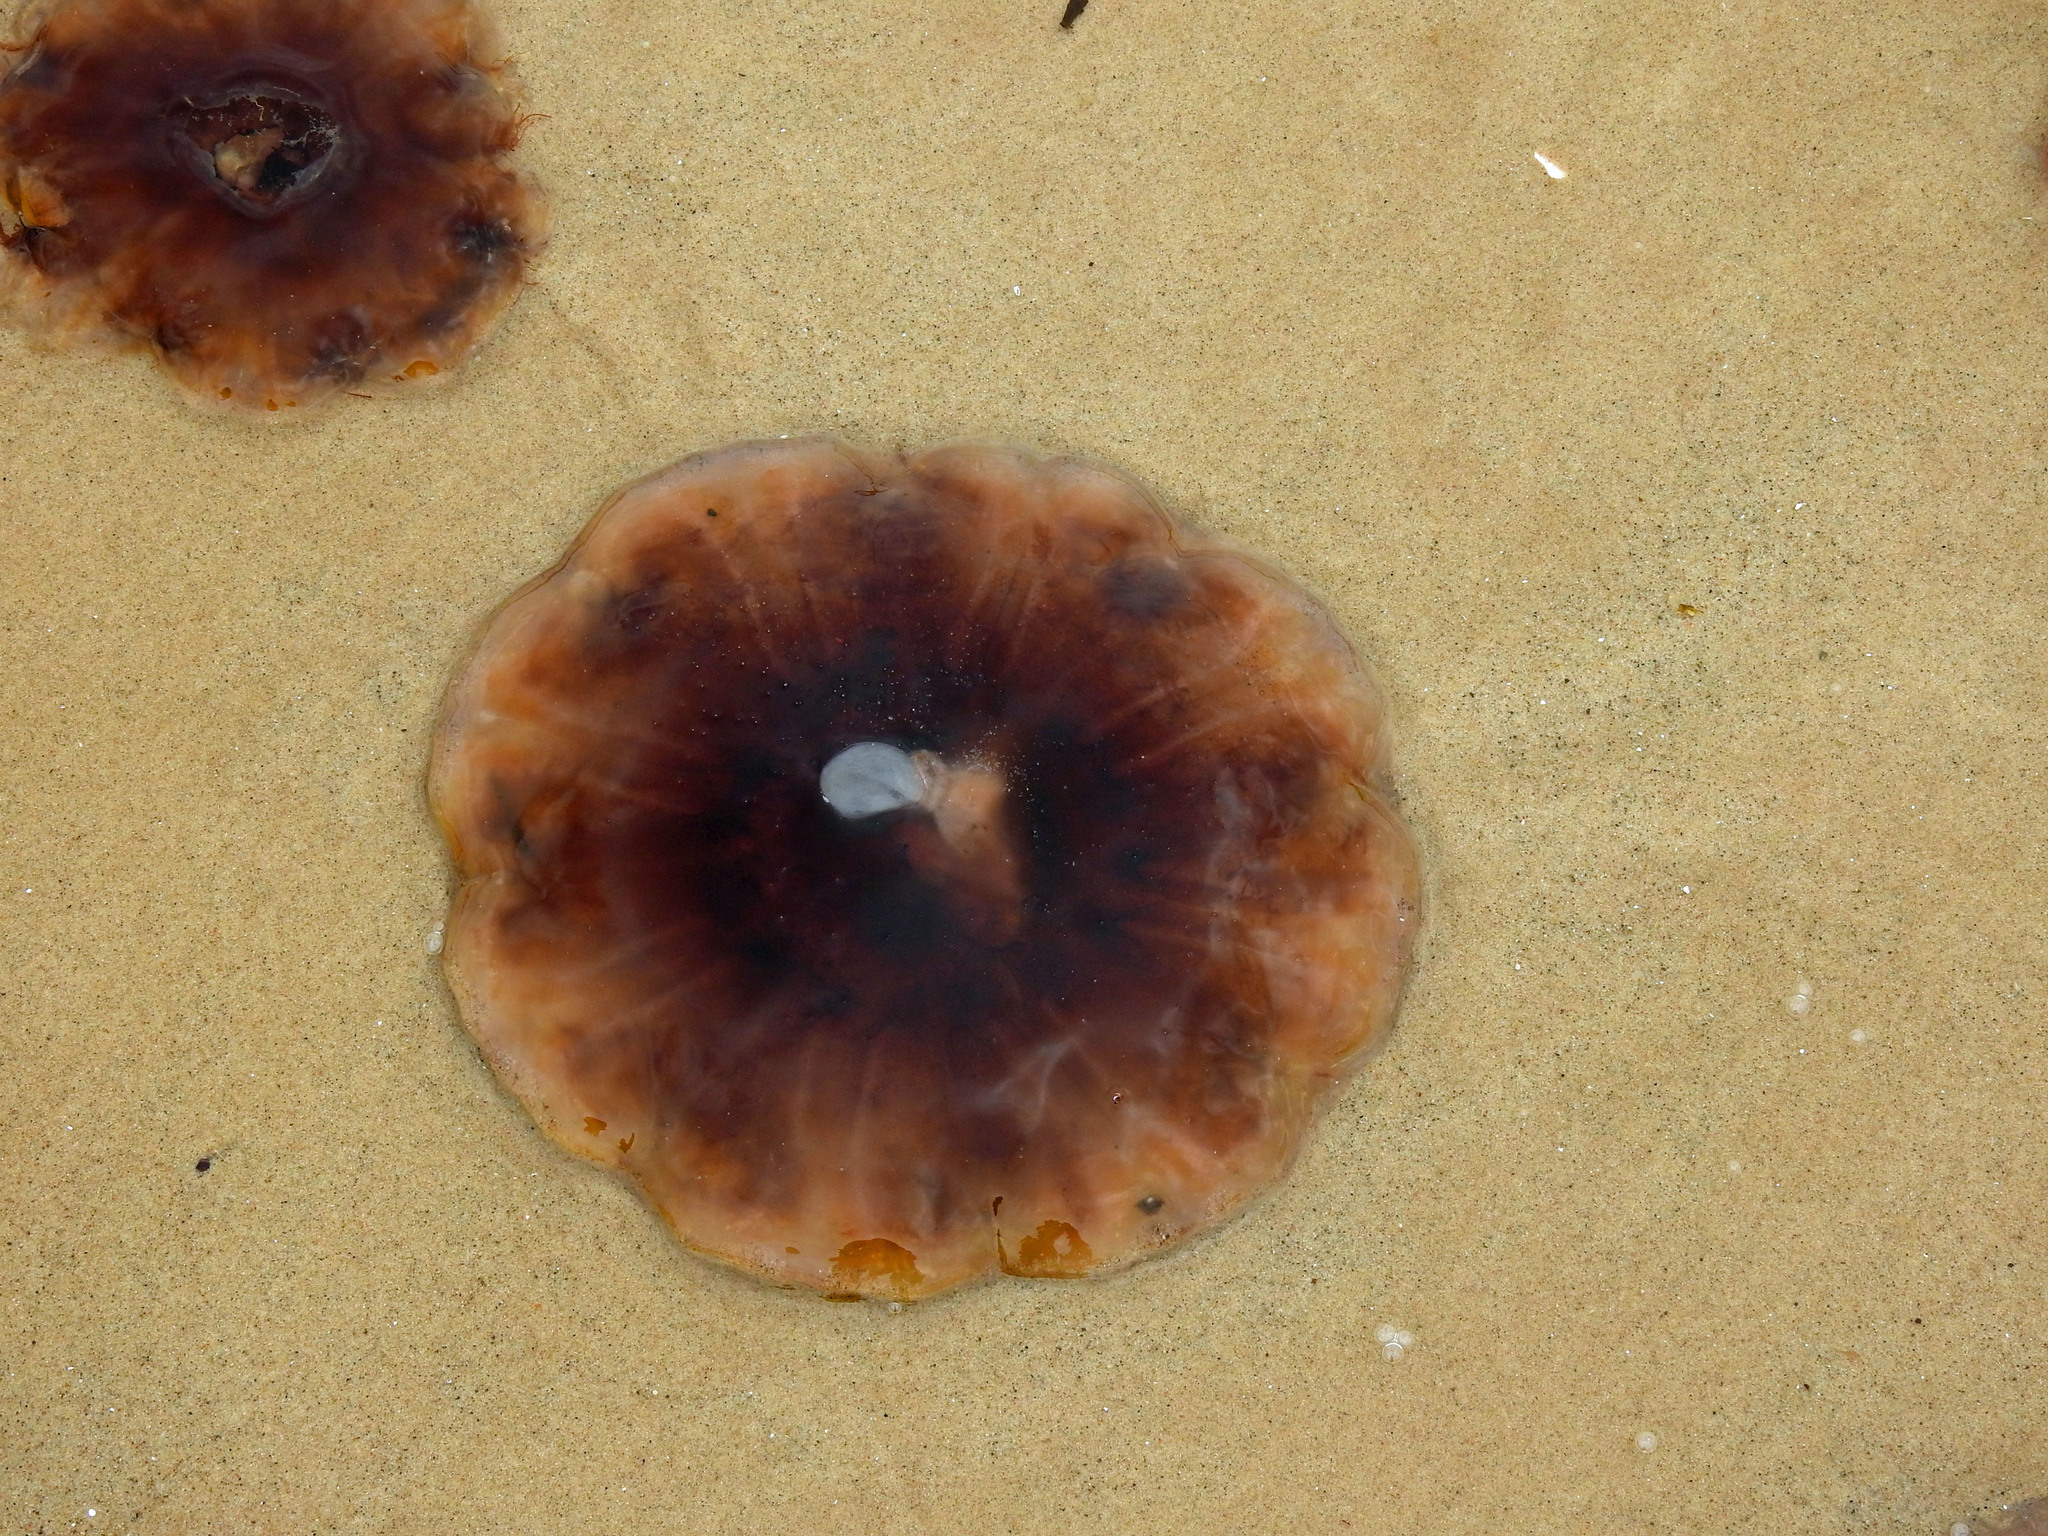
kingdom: Animalia
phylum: Cnidaria
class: Scyphozoa
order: Semaeostomeae
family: Cyaneidae
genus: Cyanea
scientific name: Cyanea
